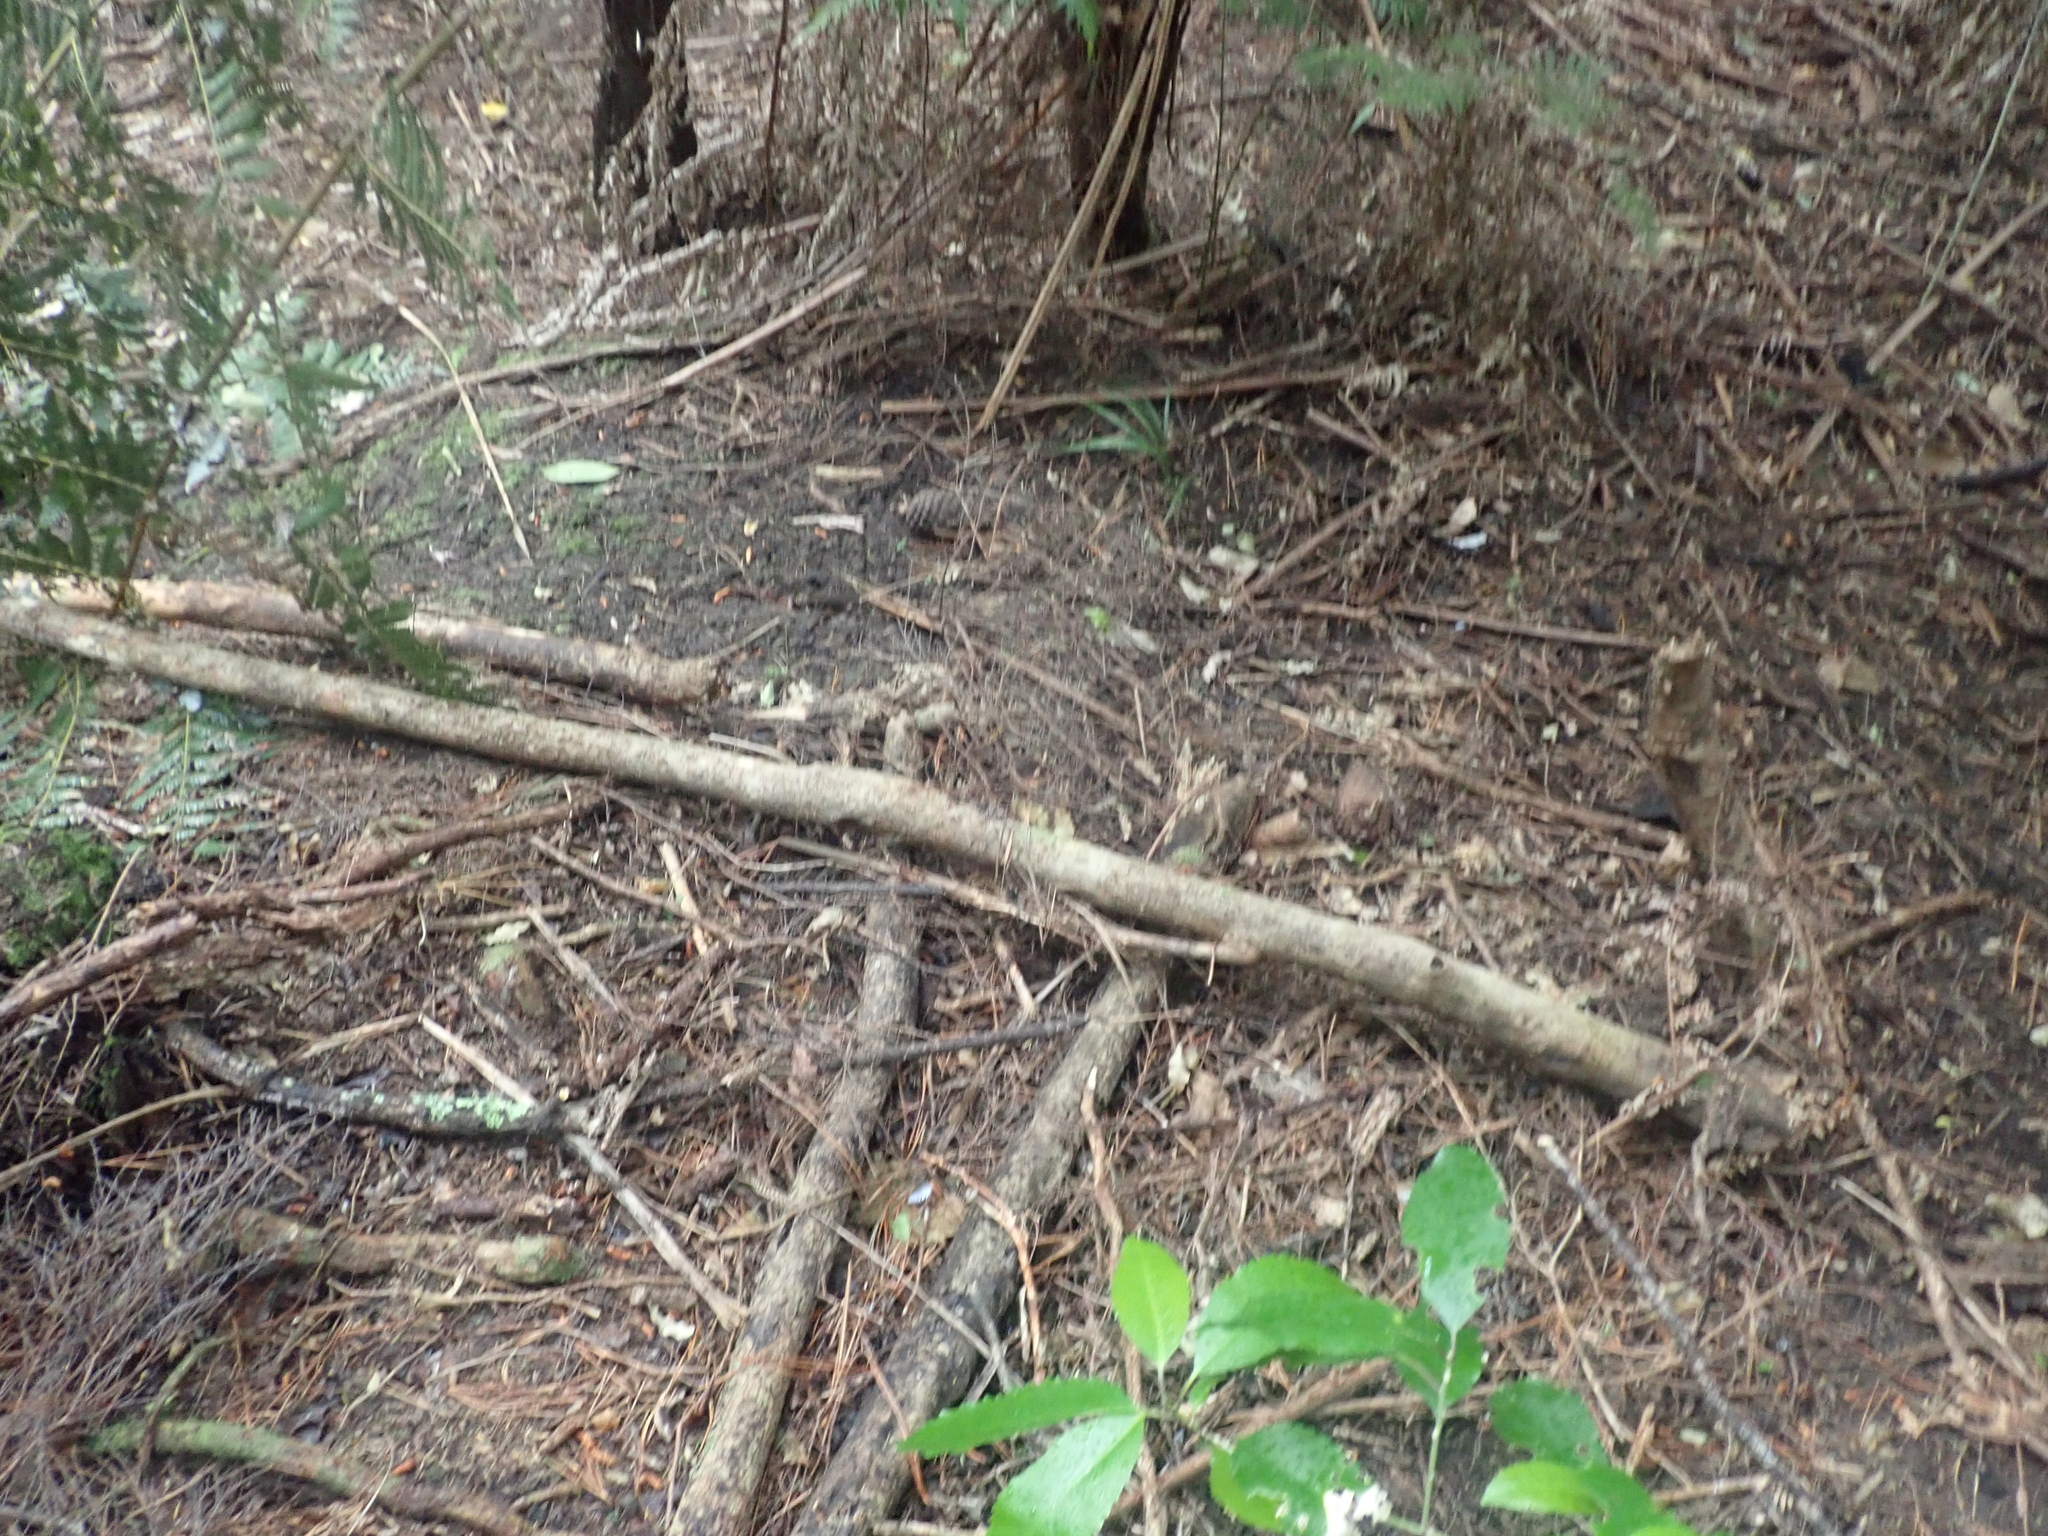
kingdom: Plantae
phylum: Tracheophyta
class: Liliopsida
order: Arecales
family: Arecaceae
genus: Rhopalostylis
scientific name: Rhopalostylis sapida
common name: Feather-duster palm
